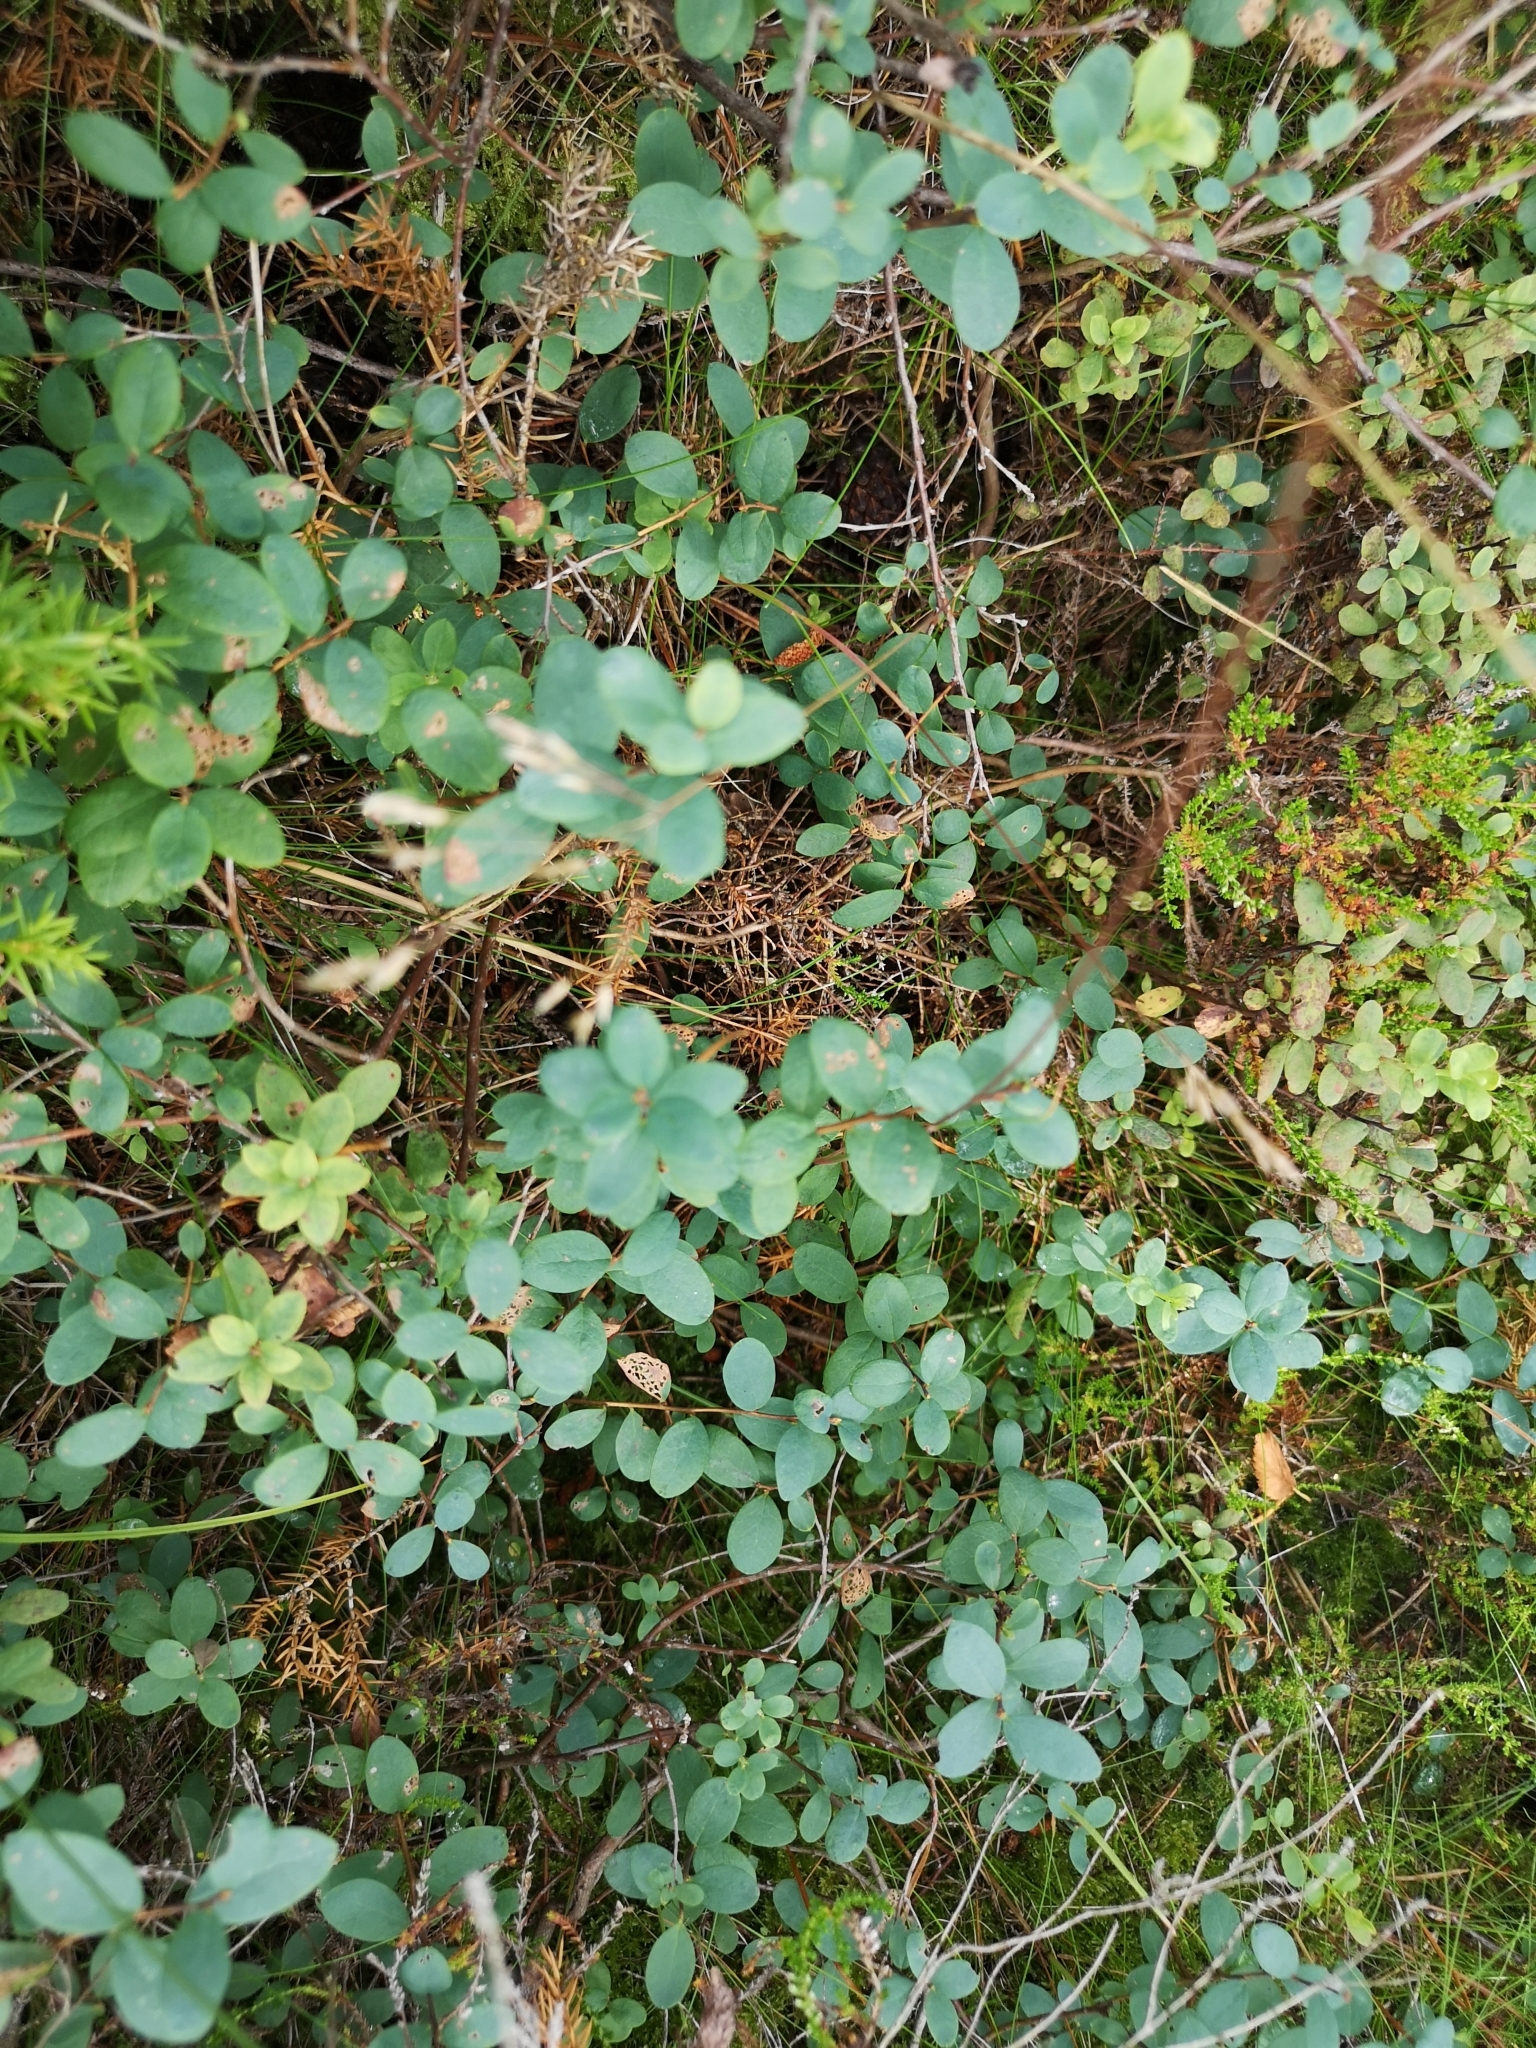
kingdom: Plantae
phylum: Tracheophyta
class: Magnoliopsida
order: Ericales
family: Ericaceae
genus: Vaccinium
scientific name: Vaccinium uliginosum
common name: Bog bilberry
